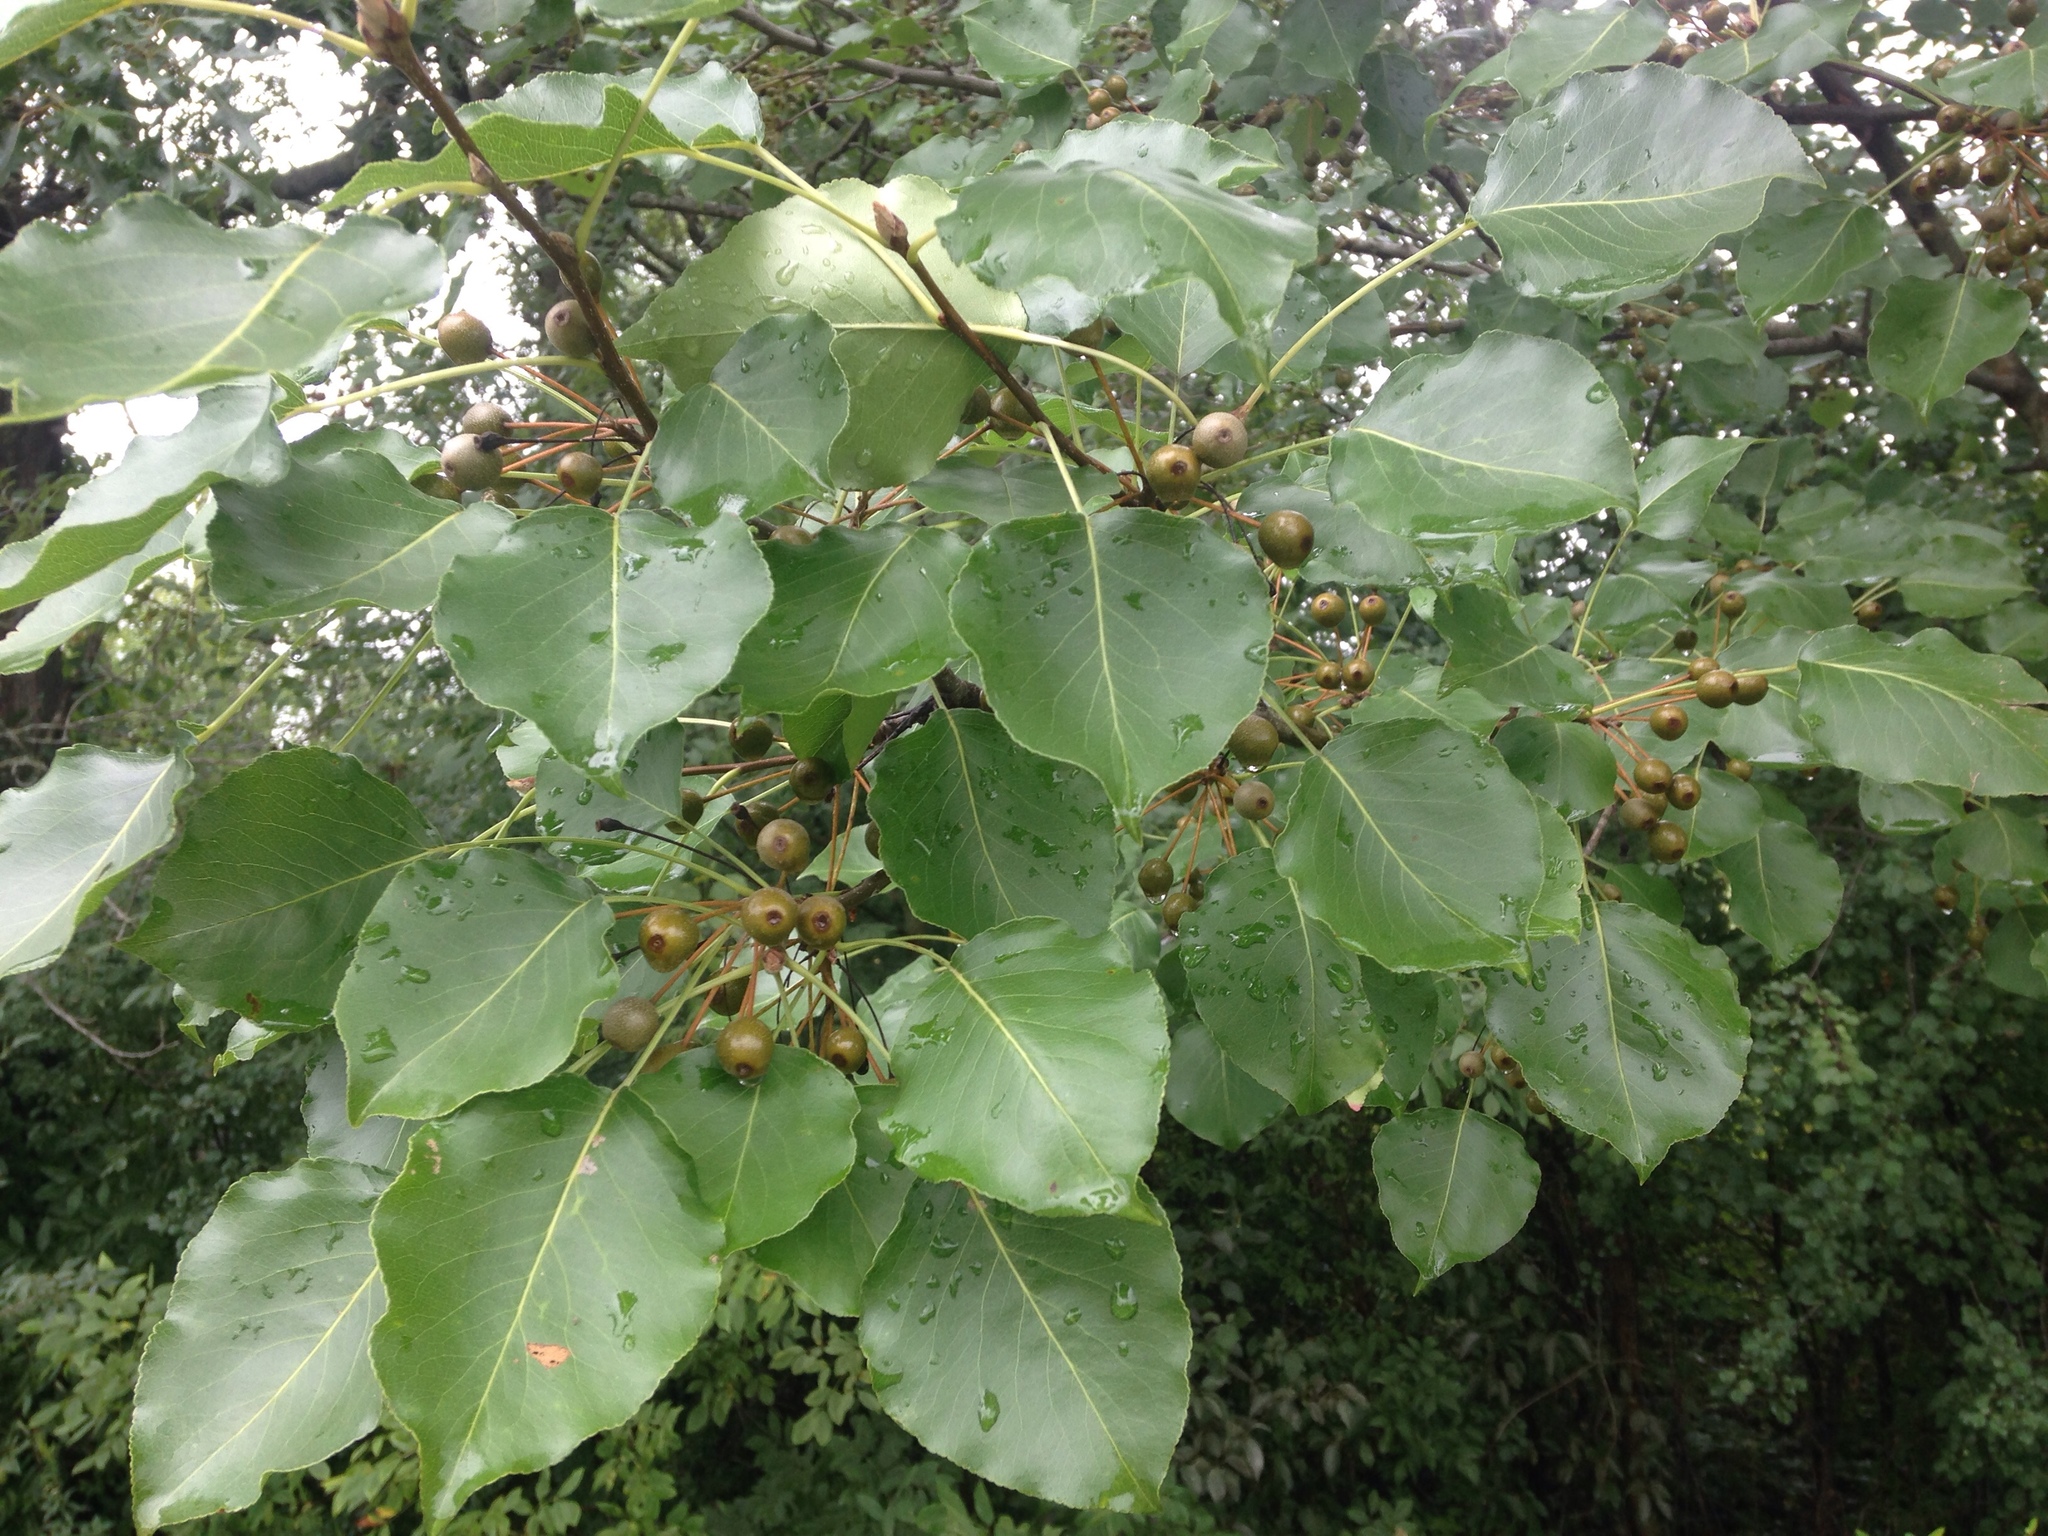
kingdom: Plantae
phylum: Tracheophyta
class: Magnoliopsida
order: Rosales
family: Rosaceae
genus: Pyrus
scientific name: Pyrus calleryana
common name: Callery pear
